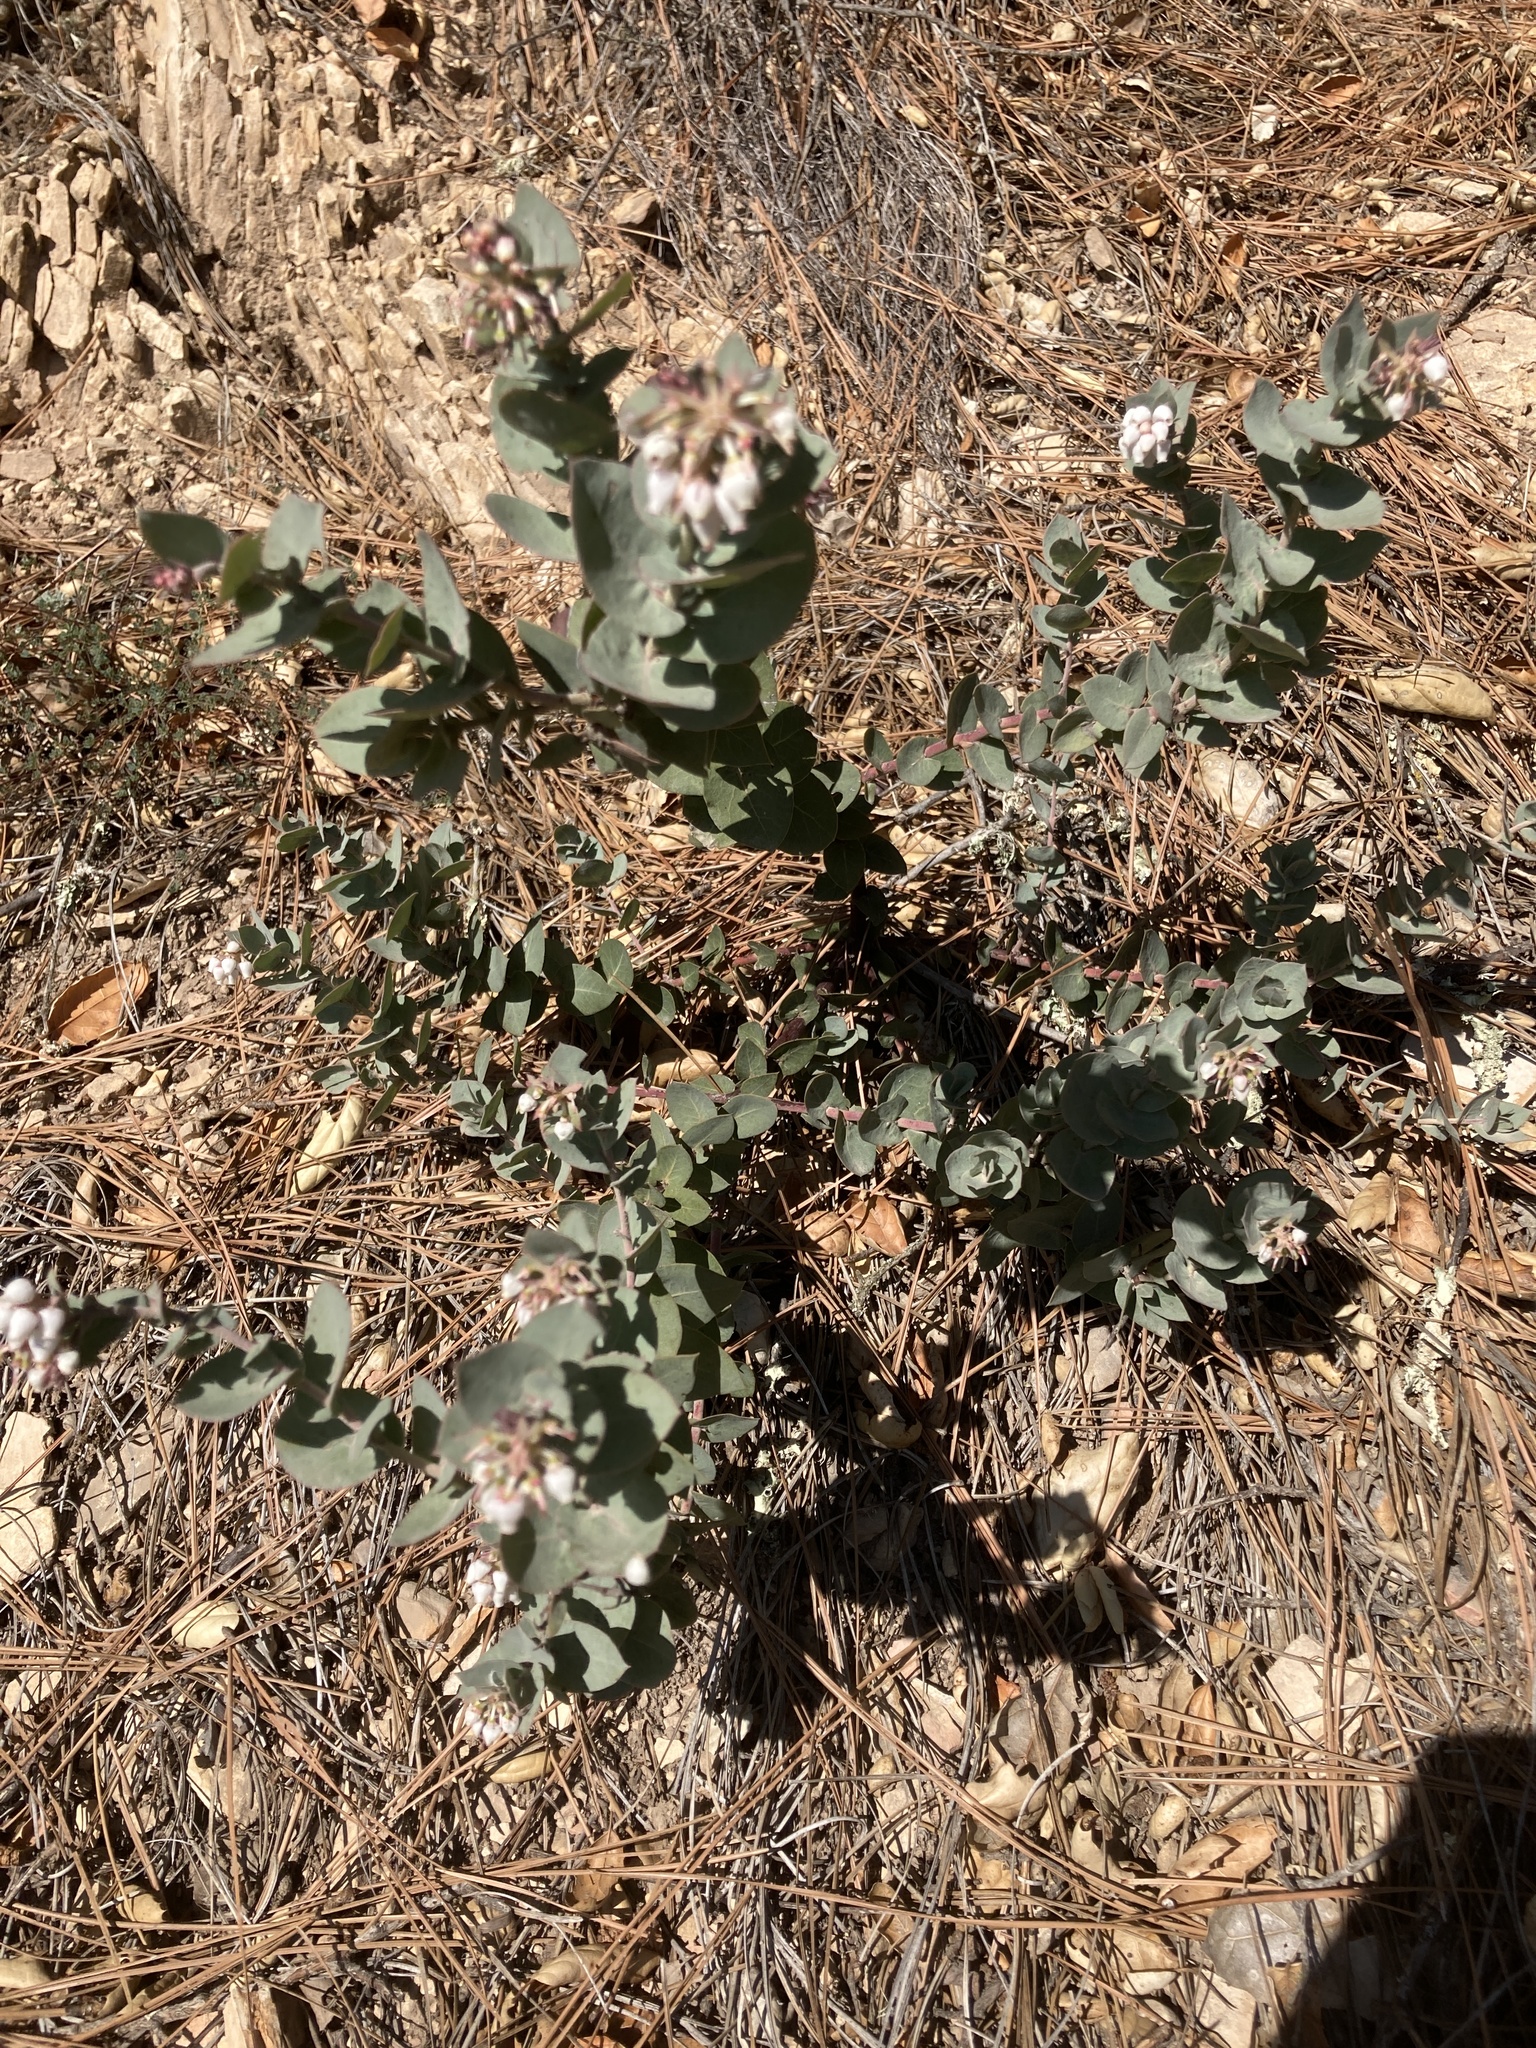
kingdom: Plantae
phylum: Tracheophyta
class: Magnoliopsida
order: Ericales
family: Ericaceae
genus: Arctostaphylos
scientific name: Arctostaphylos luciana
